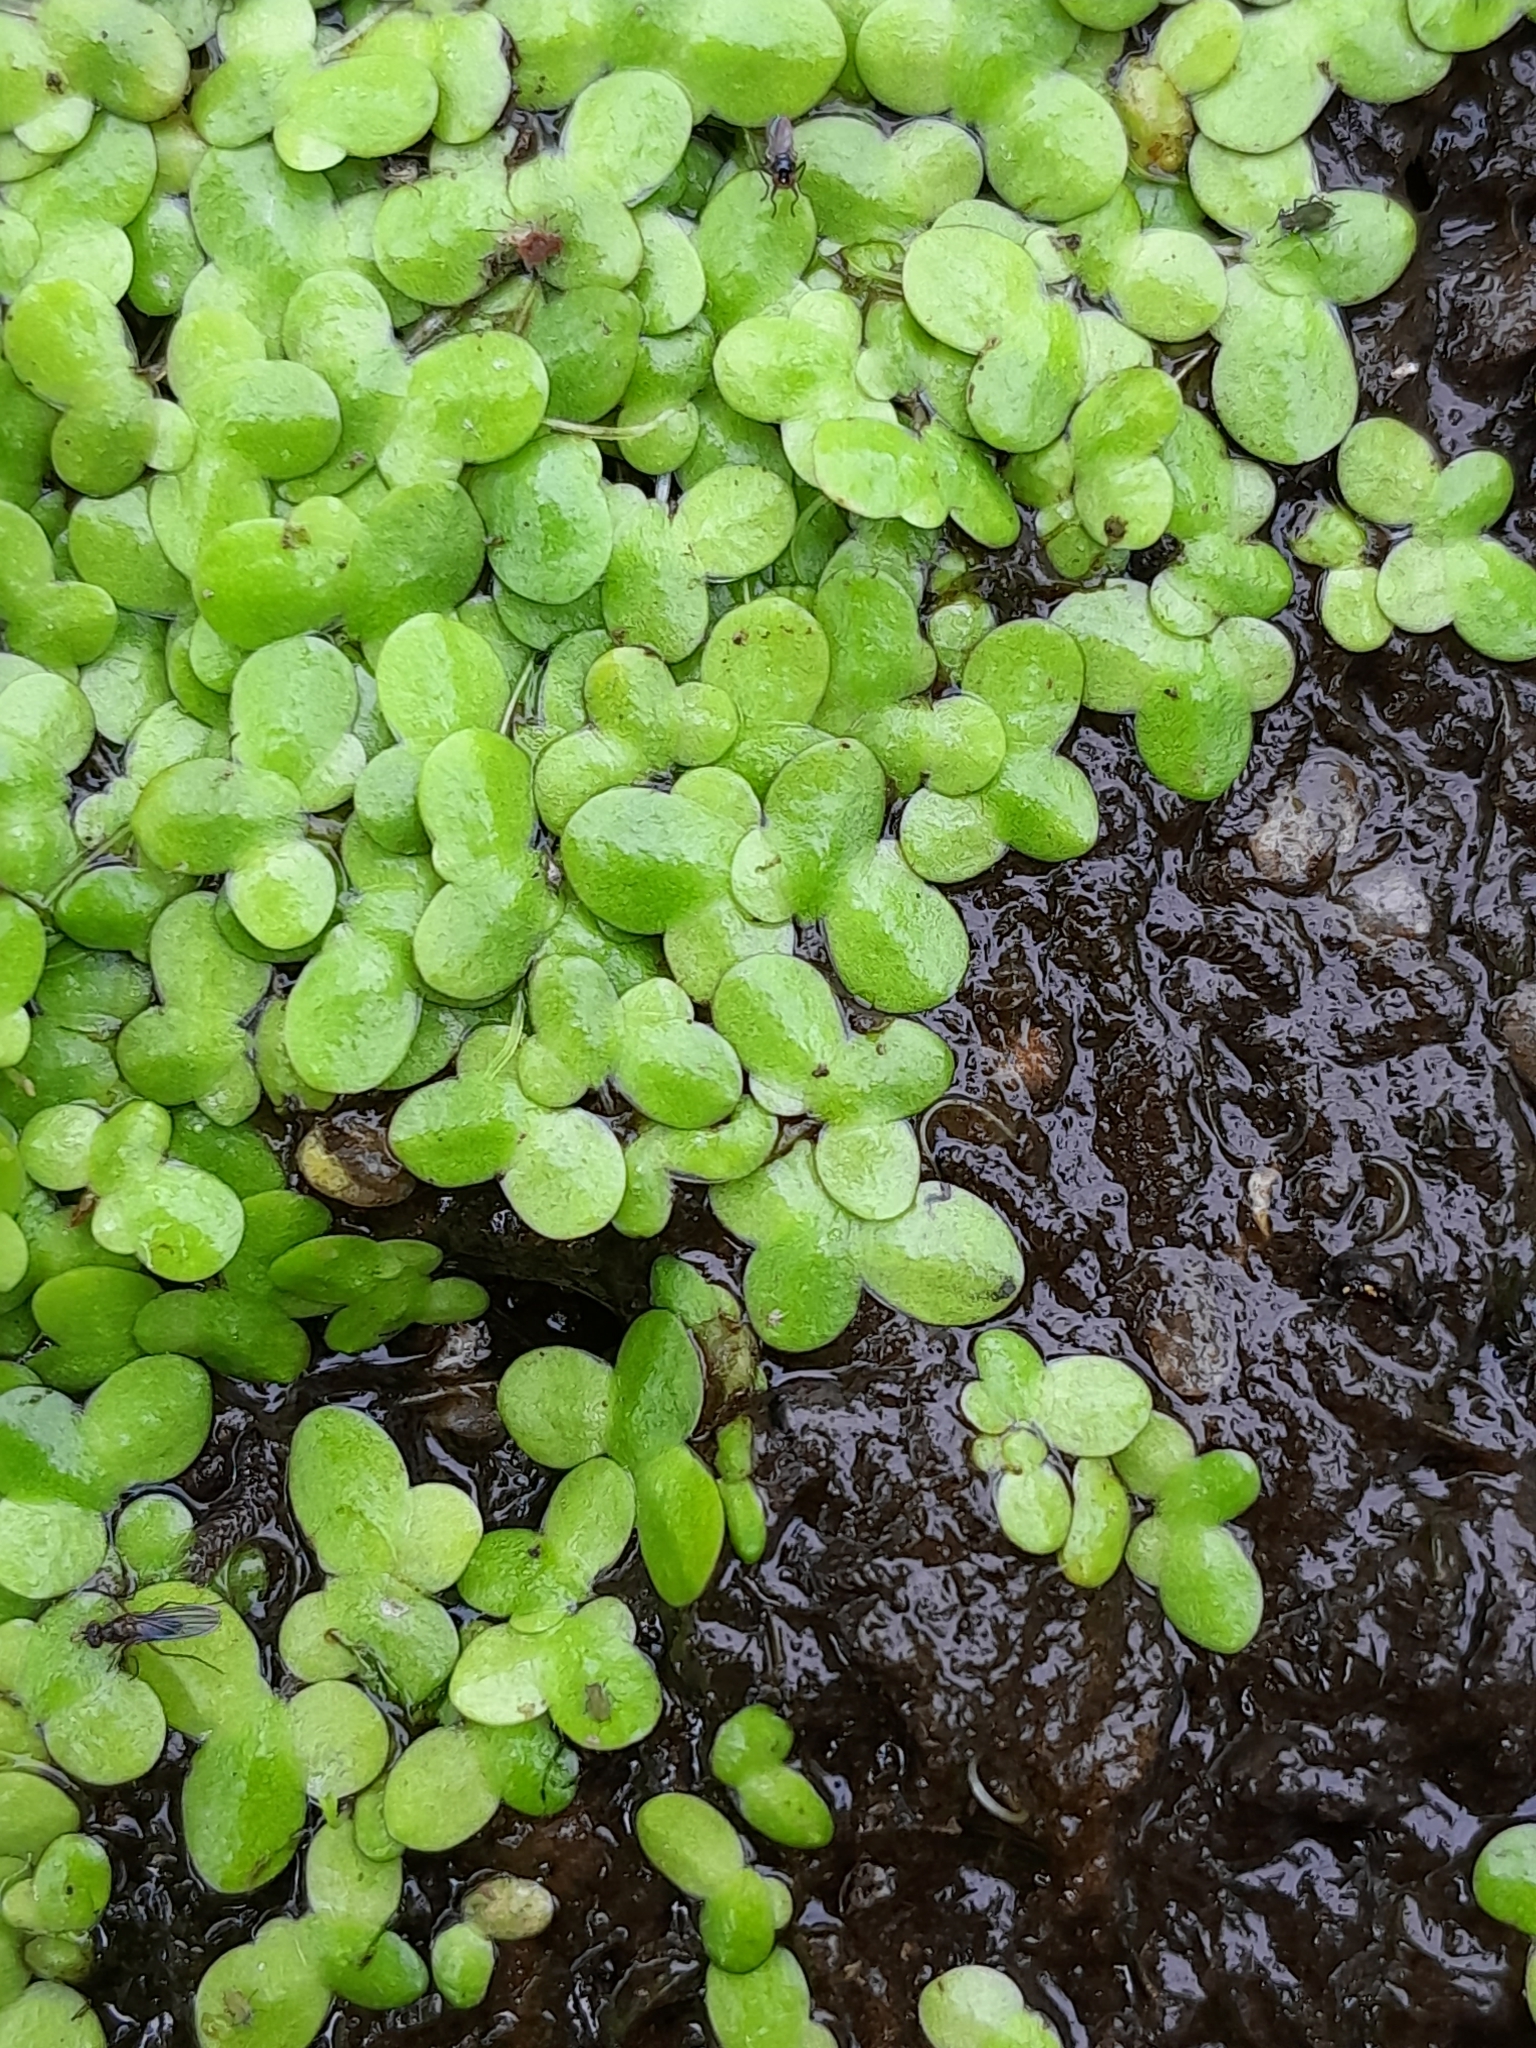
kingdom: Plantae
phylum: Tracheophyta
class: Liliopsida
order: Alismatales
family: Araceae
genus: Lemna
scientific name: Lemna minor
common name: Common duckweed
